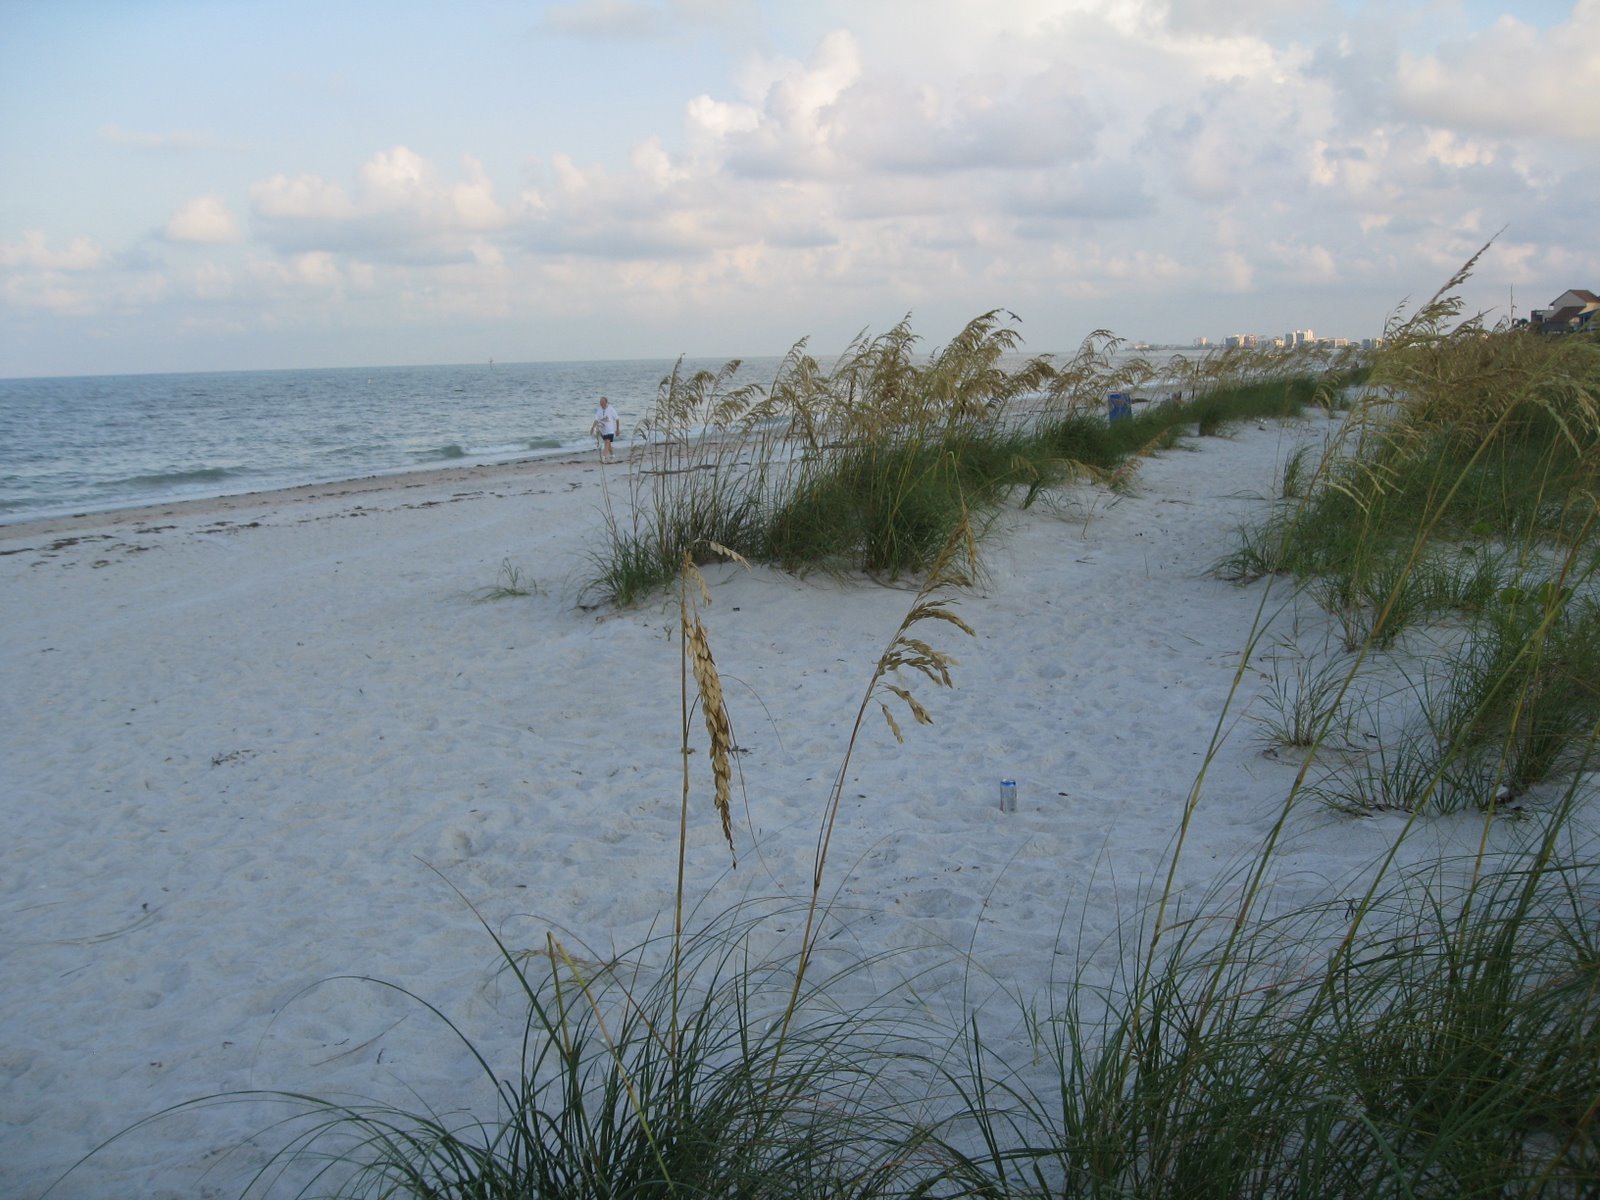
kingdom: Plantae
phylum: Tracheophyta
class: Liliopsida
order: Poales
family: Poaceae
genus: Uniola
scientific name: Uniola paniculata
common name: Seaside-oats
